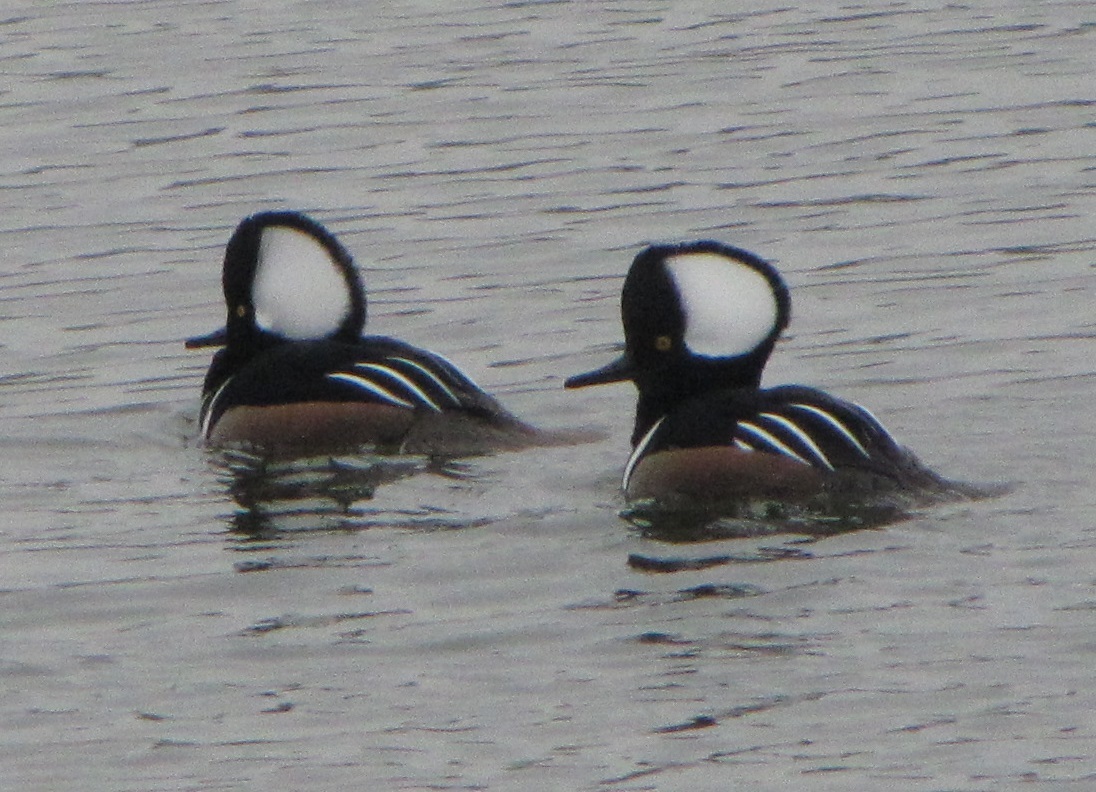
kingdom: Animalia
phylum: Chordata
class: Aves
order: Anseriformes
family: Anatidae
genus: Lophodytes
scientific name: Lophodytes cucullatus
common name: Hooded merganser
